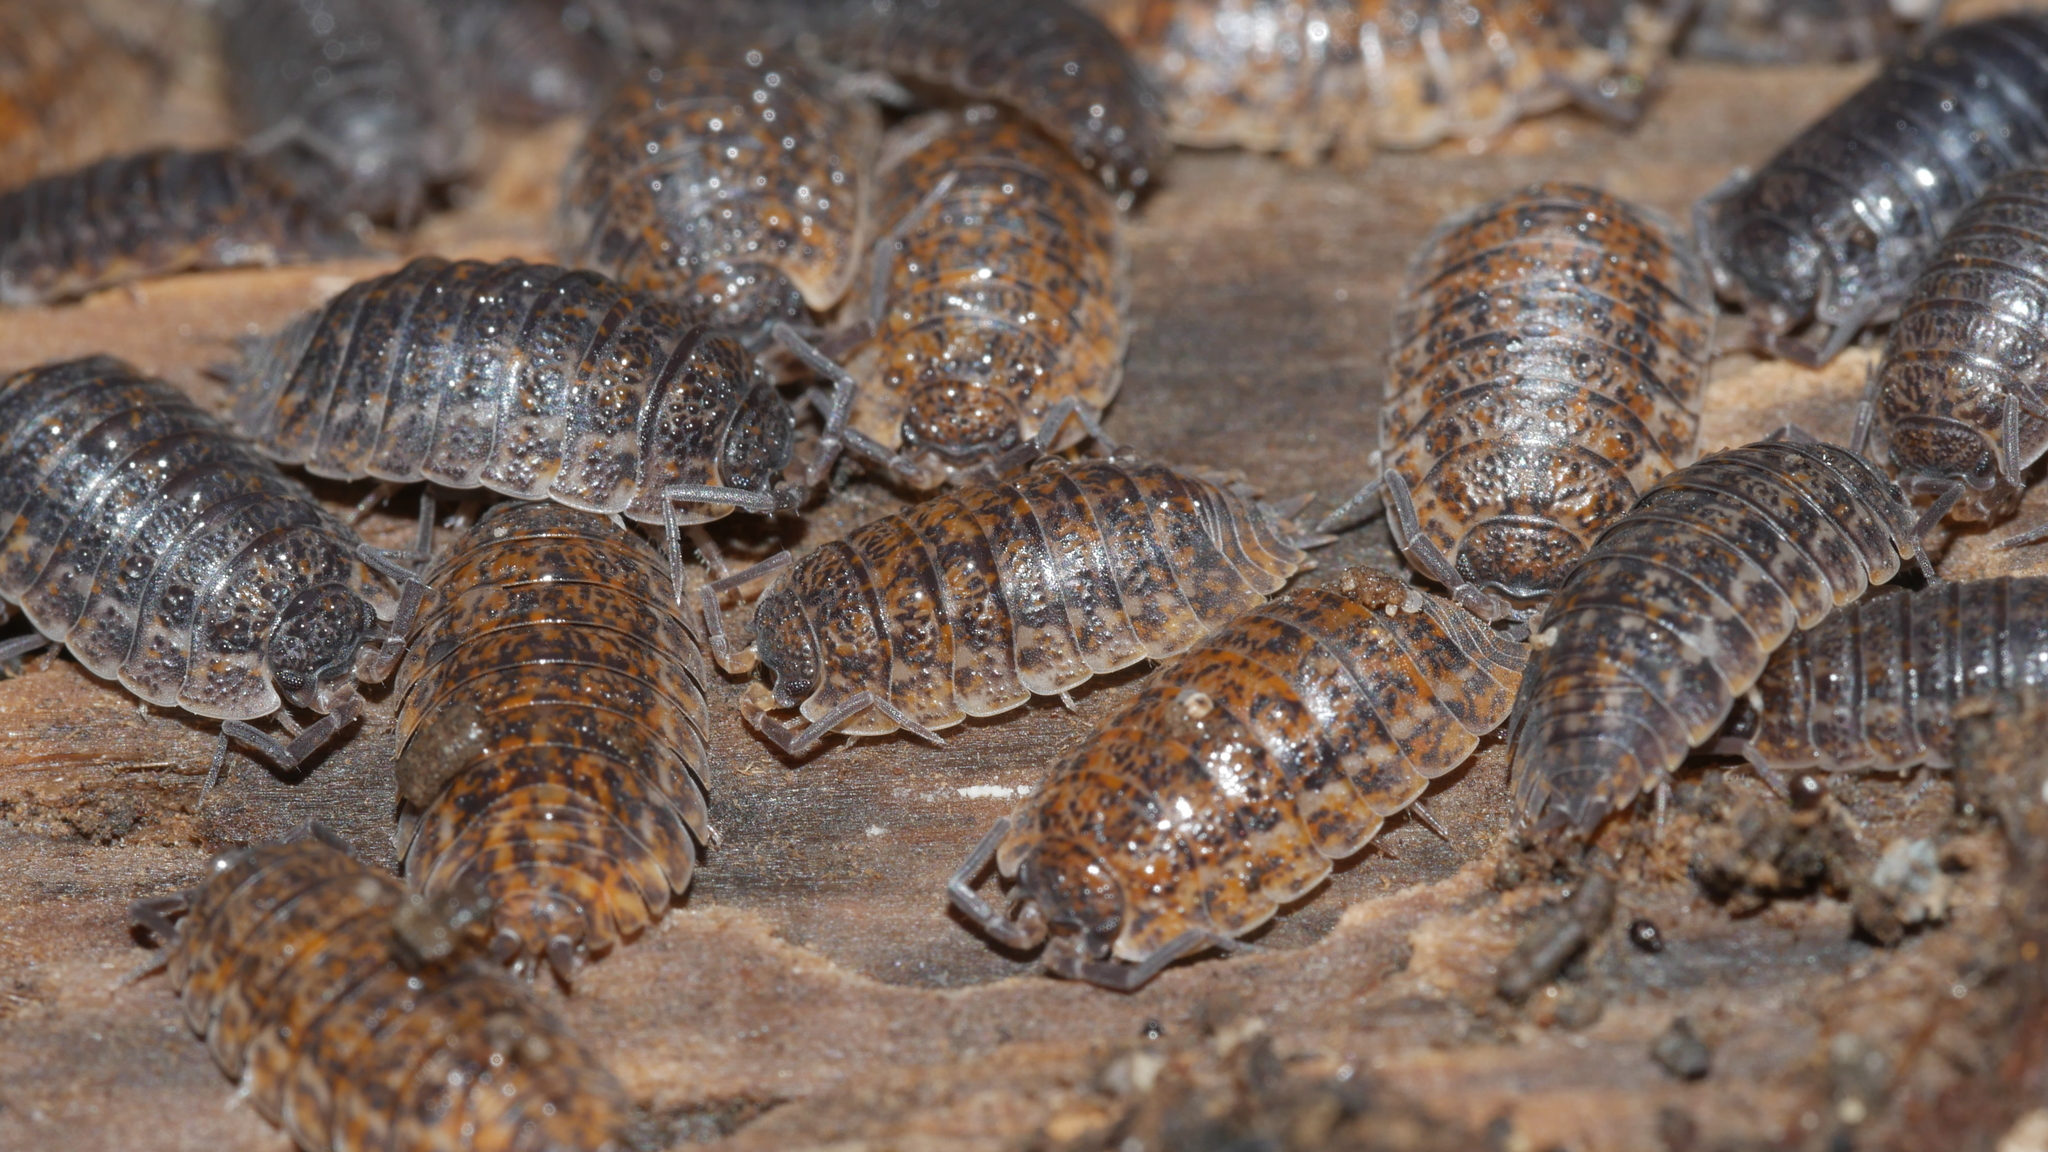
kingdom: Animalia
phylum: Arthropoda
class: Malacostraca
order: Isopoda
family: Trachelipodidae
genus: Trachelipus
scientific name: Trachelipus rathkii
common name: Isopod
